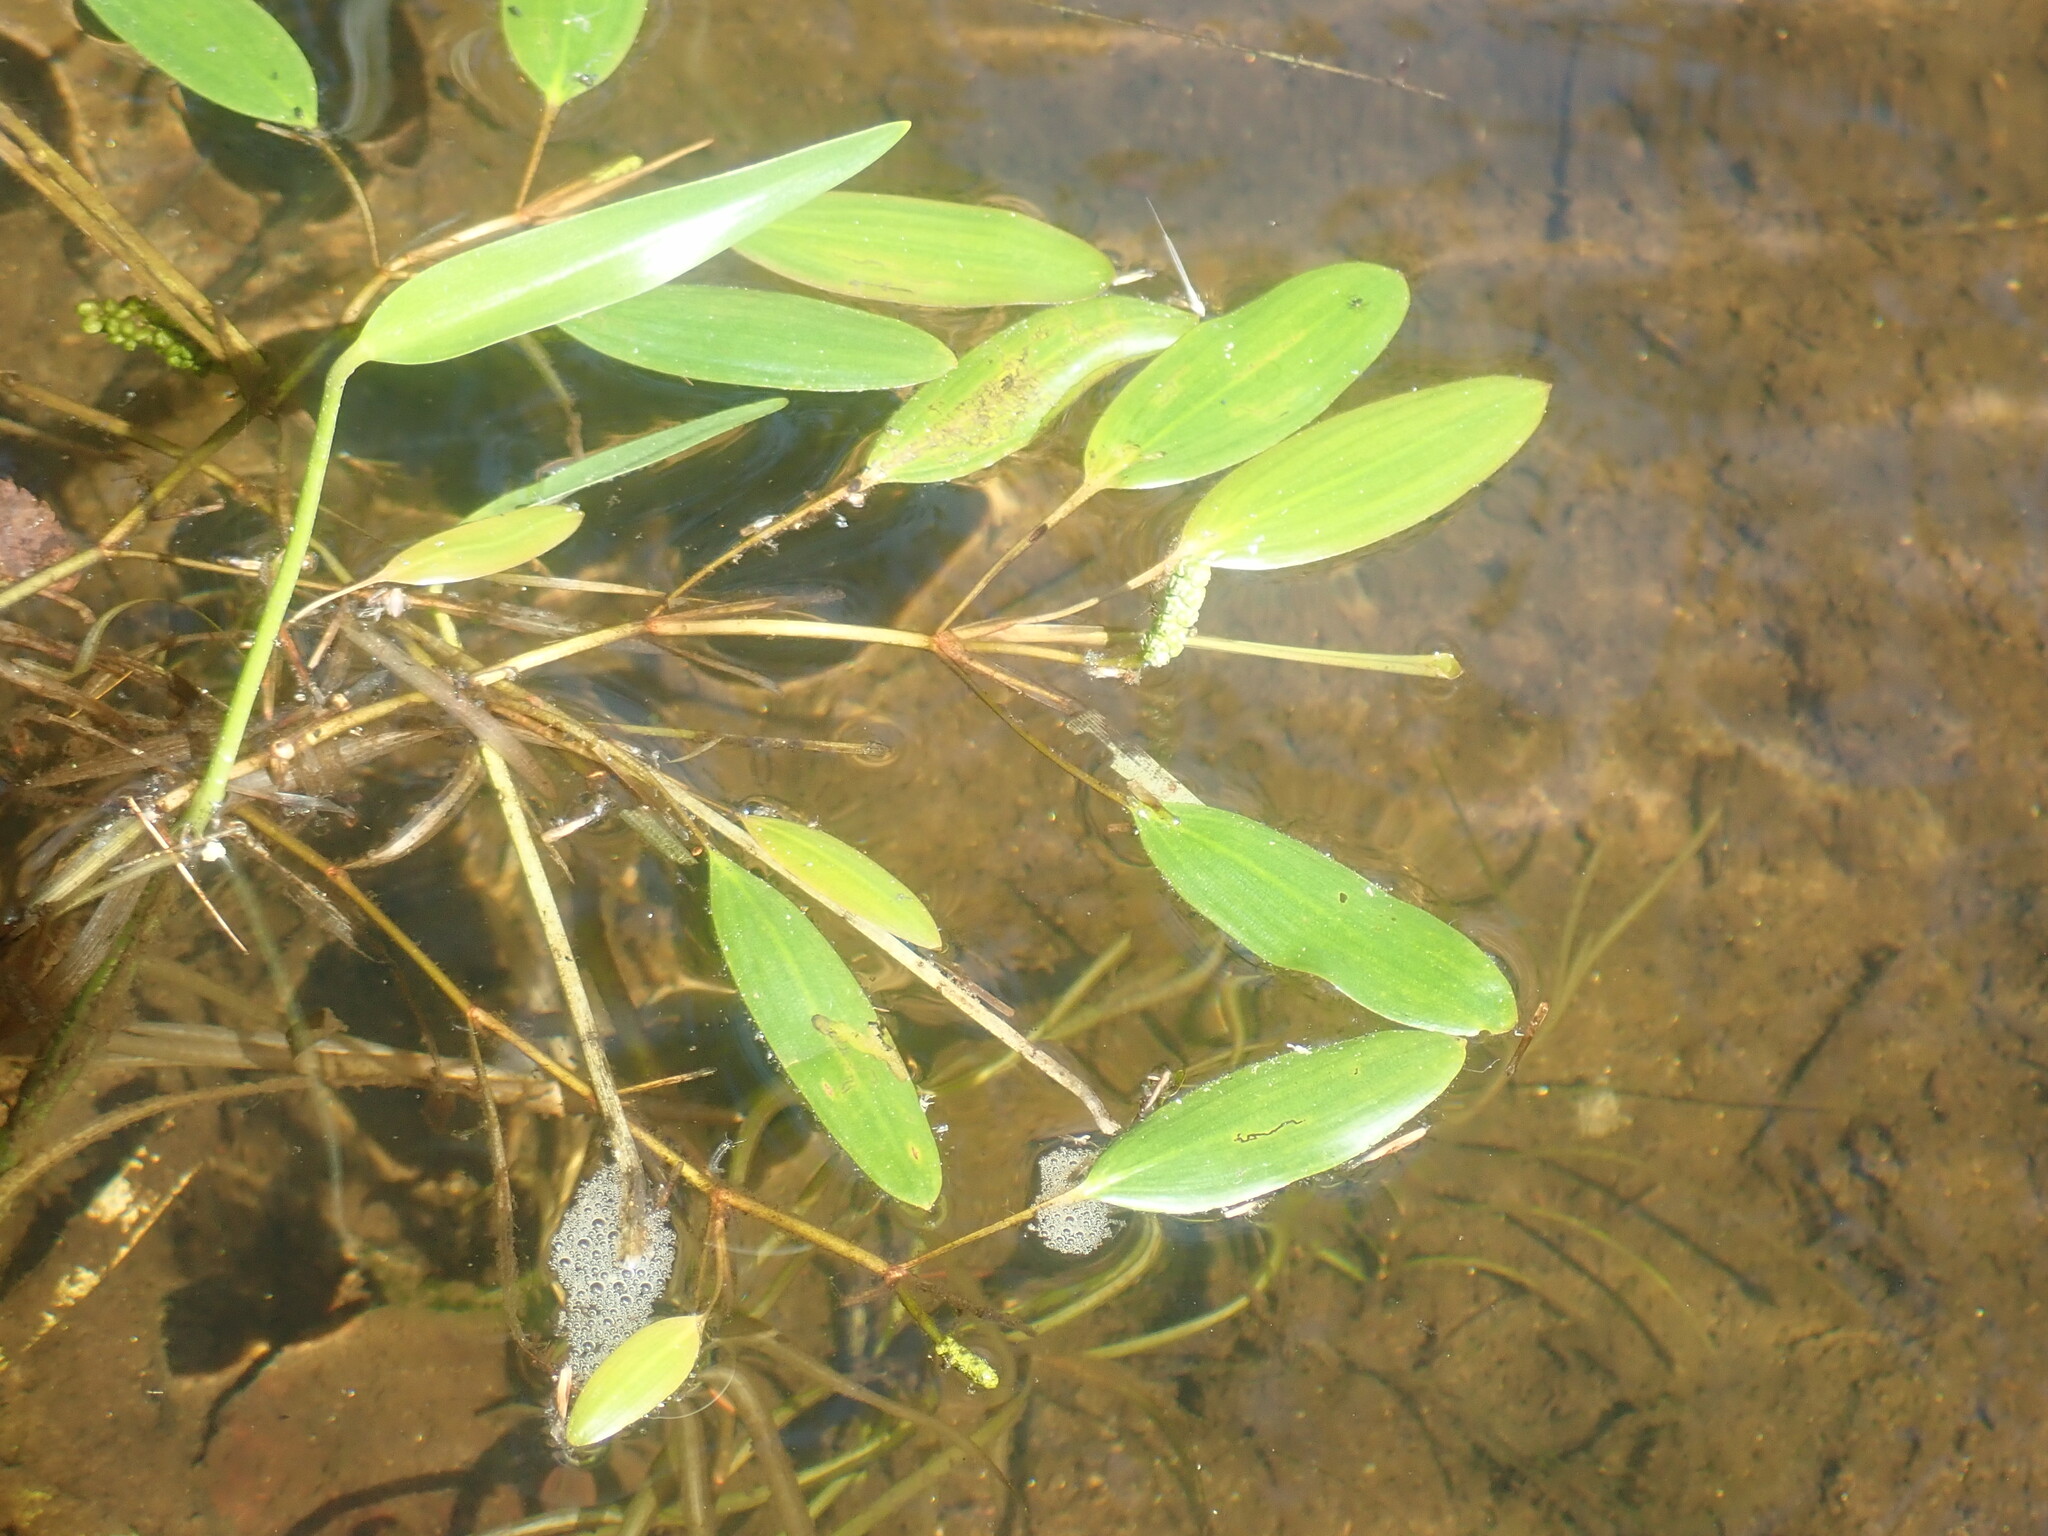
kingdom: Plantae
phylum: Tracheophyta
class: Liliopsida
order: Alismatales
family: Potamogetonaceae
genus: Potamogeton
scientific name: Potamogeton epihydrus
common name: American pondweed
